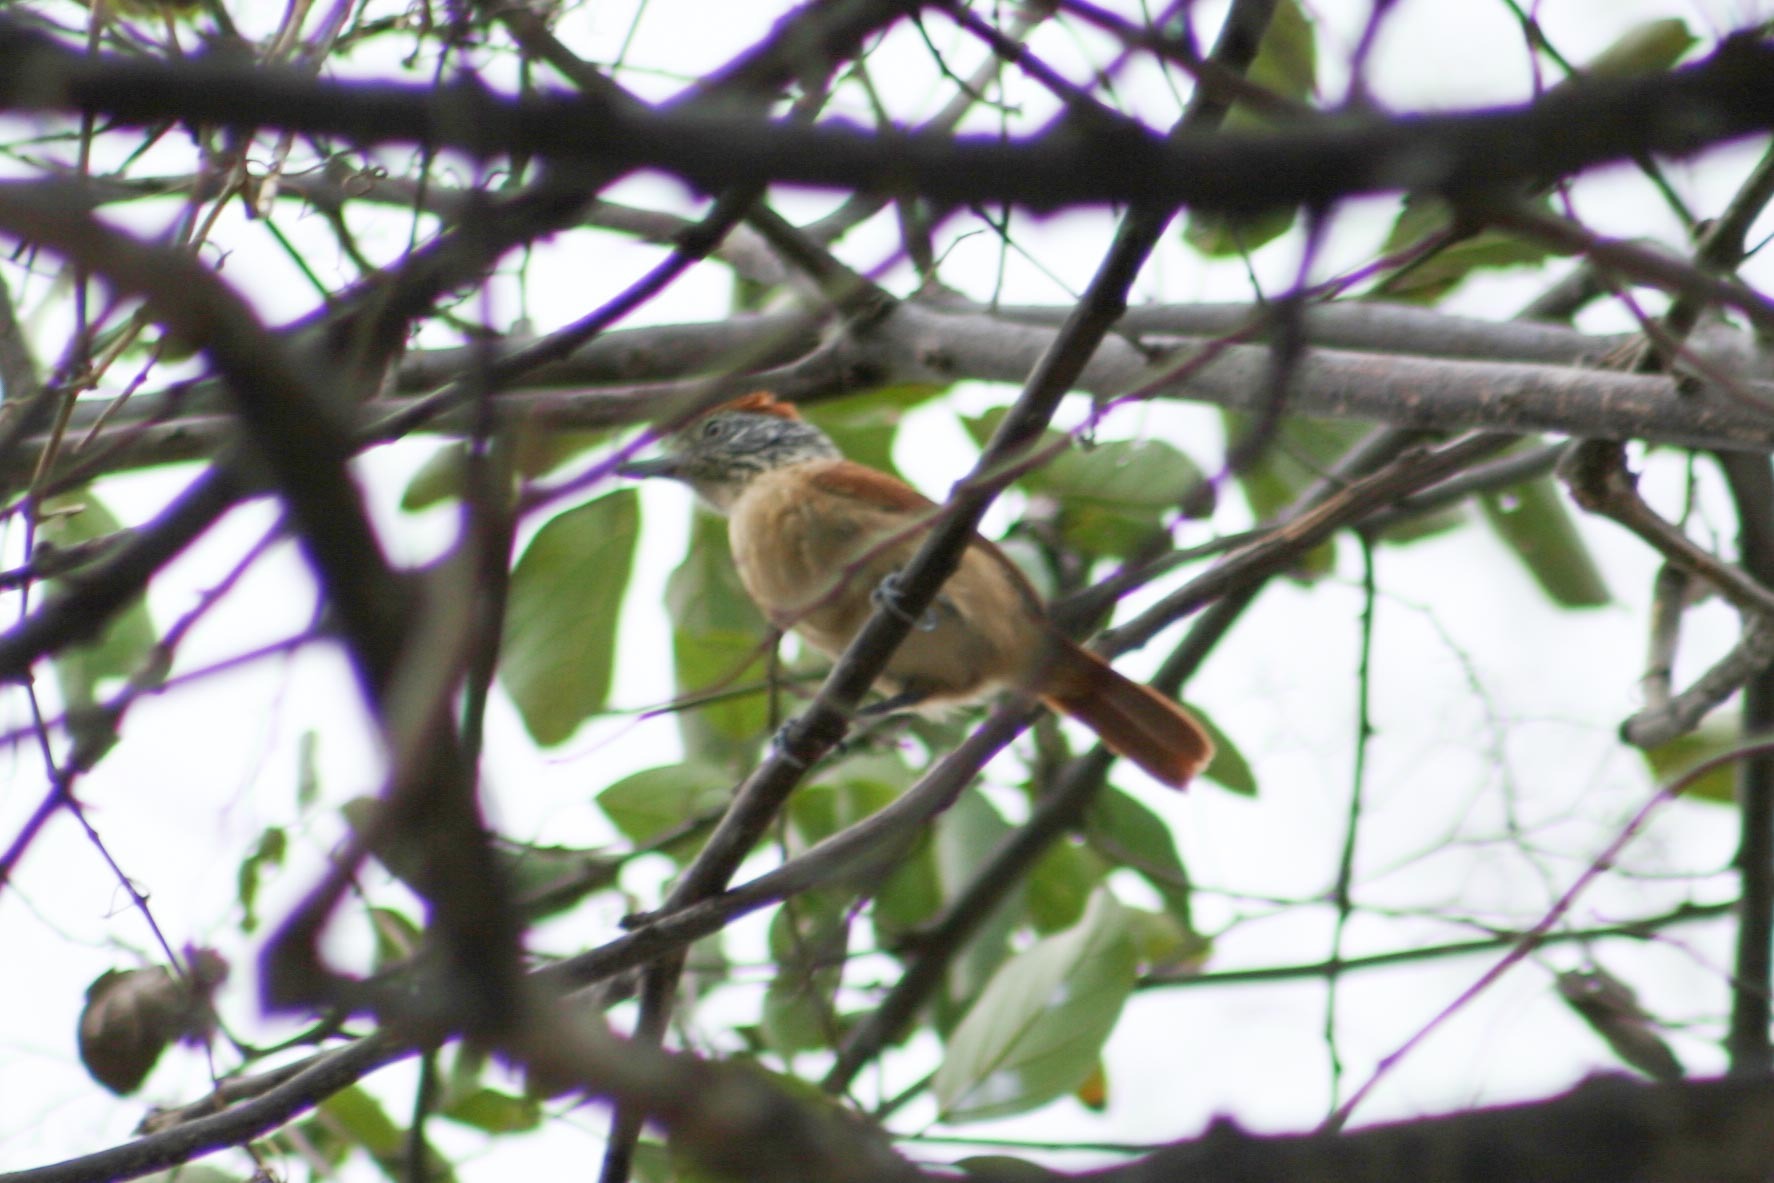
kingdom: Animalia
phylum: Chordata
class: Aves
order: Passeriformes
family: Thamnophilidae
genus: Thamnophilus
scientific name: Thamnophilus doliatus
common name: Barred antshrike
